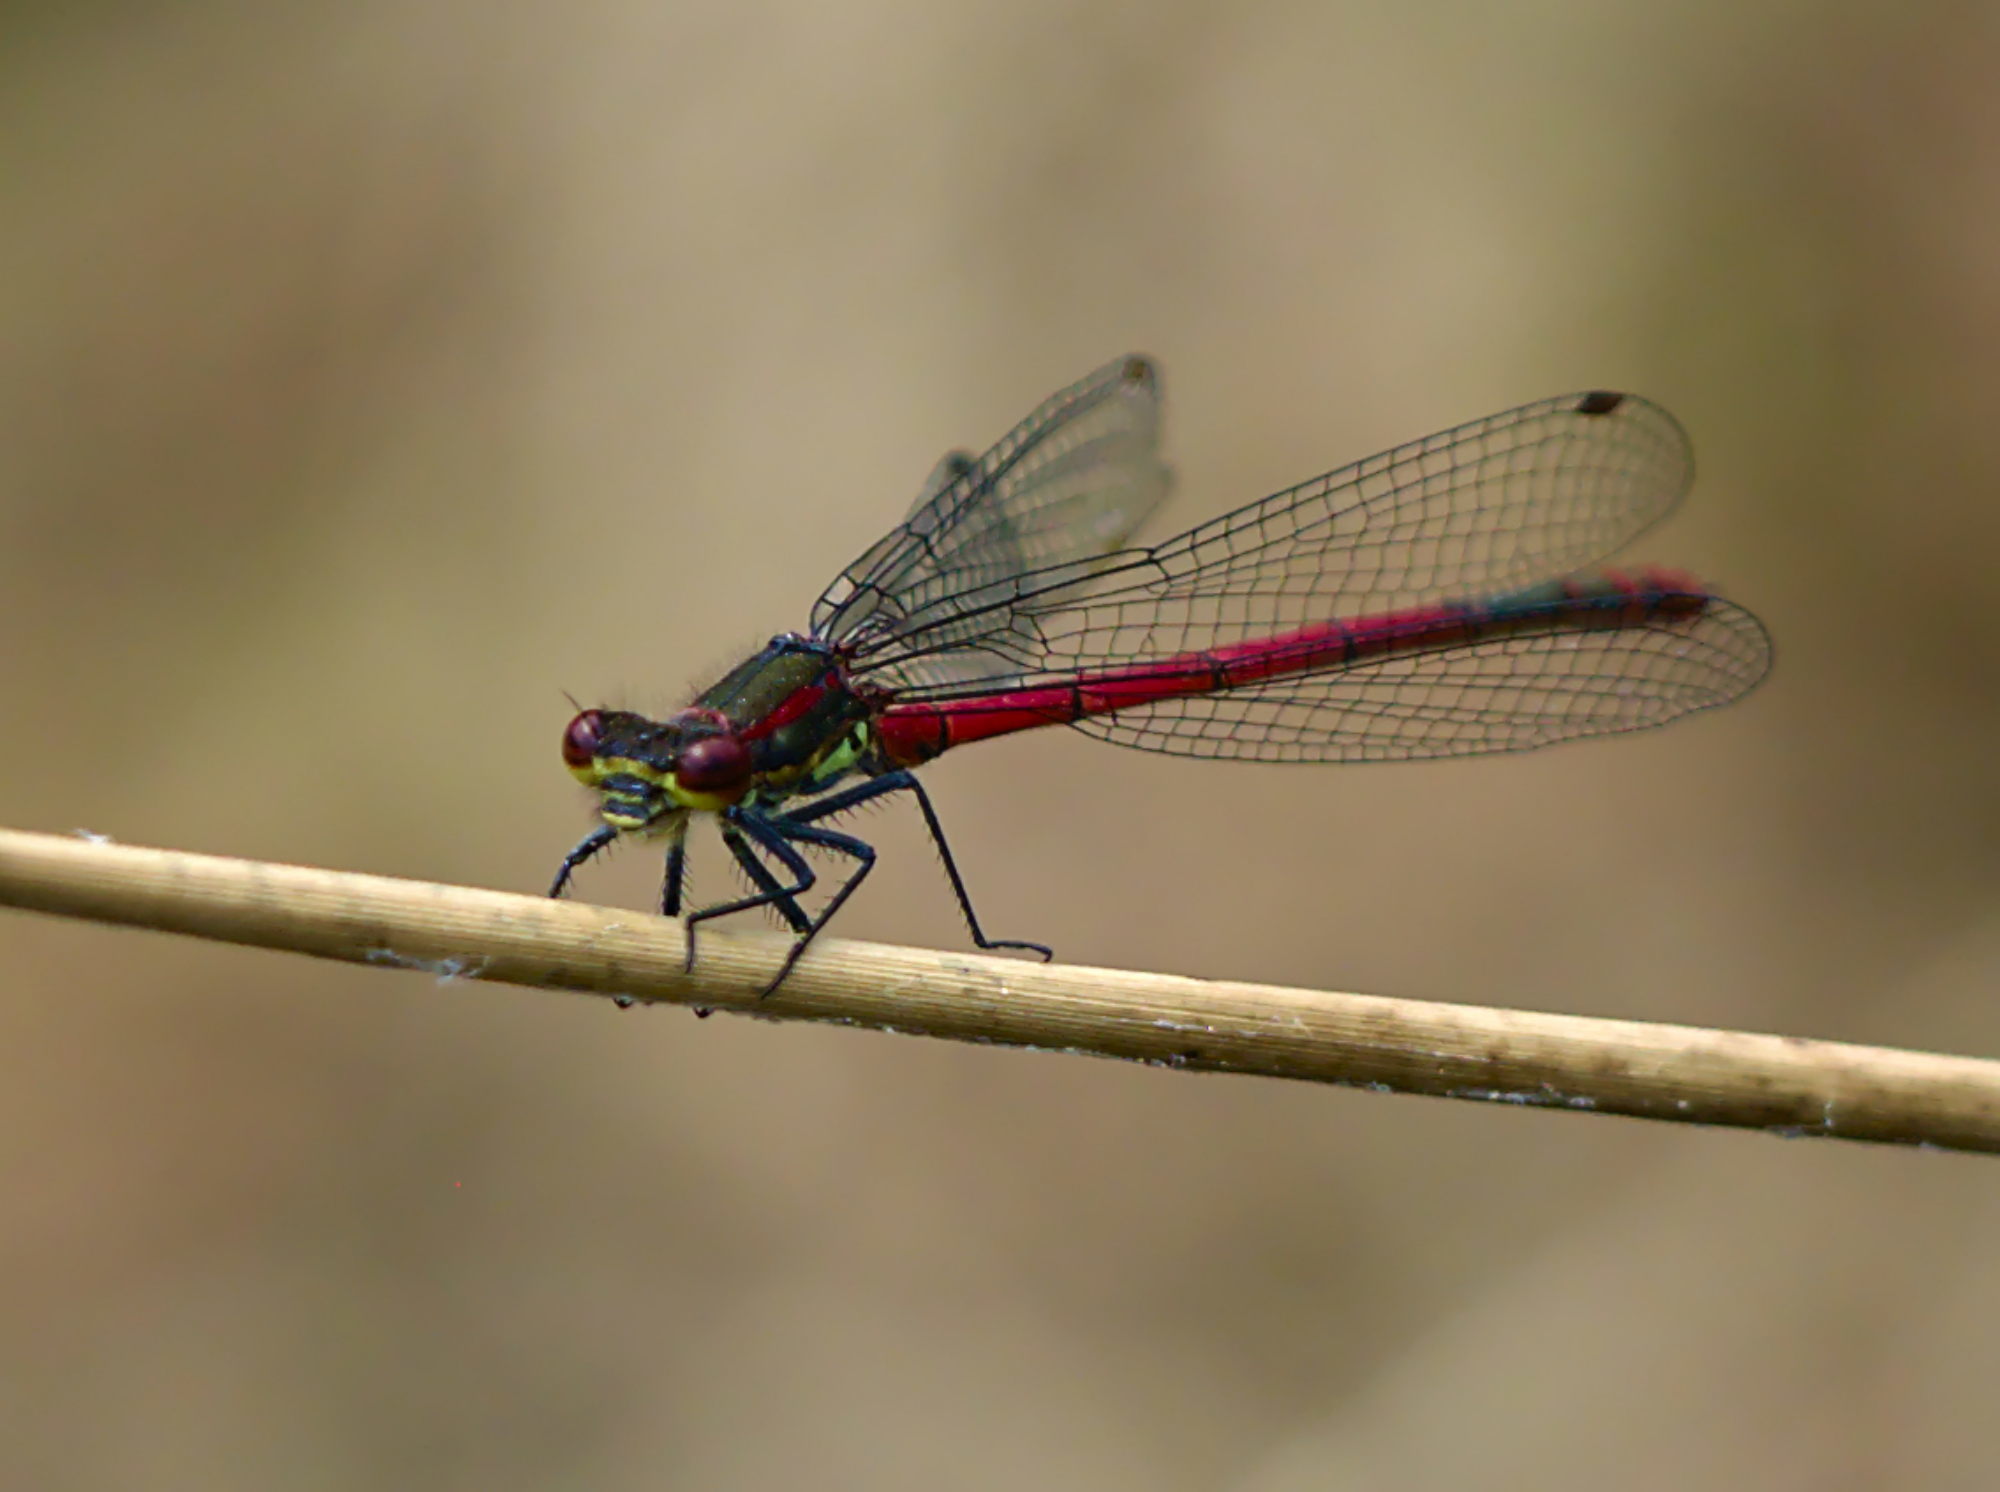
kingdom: Animalia
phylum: Arthropoda
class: Insecta
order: Odonata
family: Coenagrionidae
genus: Pyrrhosoma
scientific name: Pyrrhosoma nymphula
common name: Large red damsel
